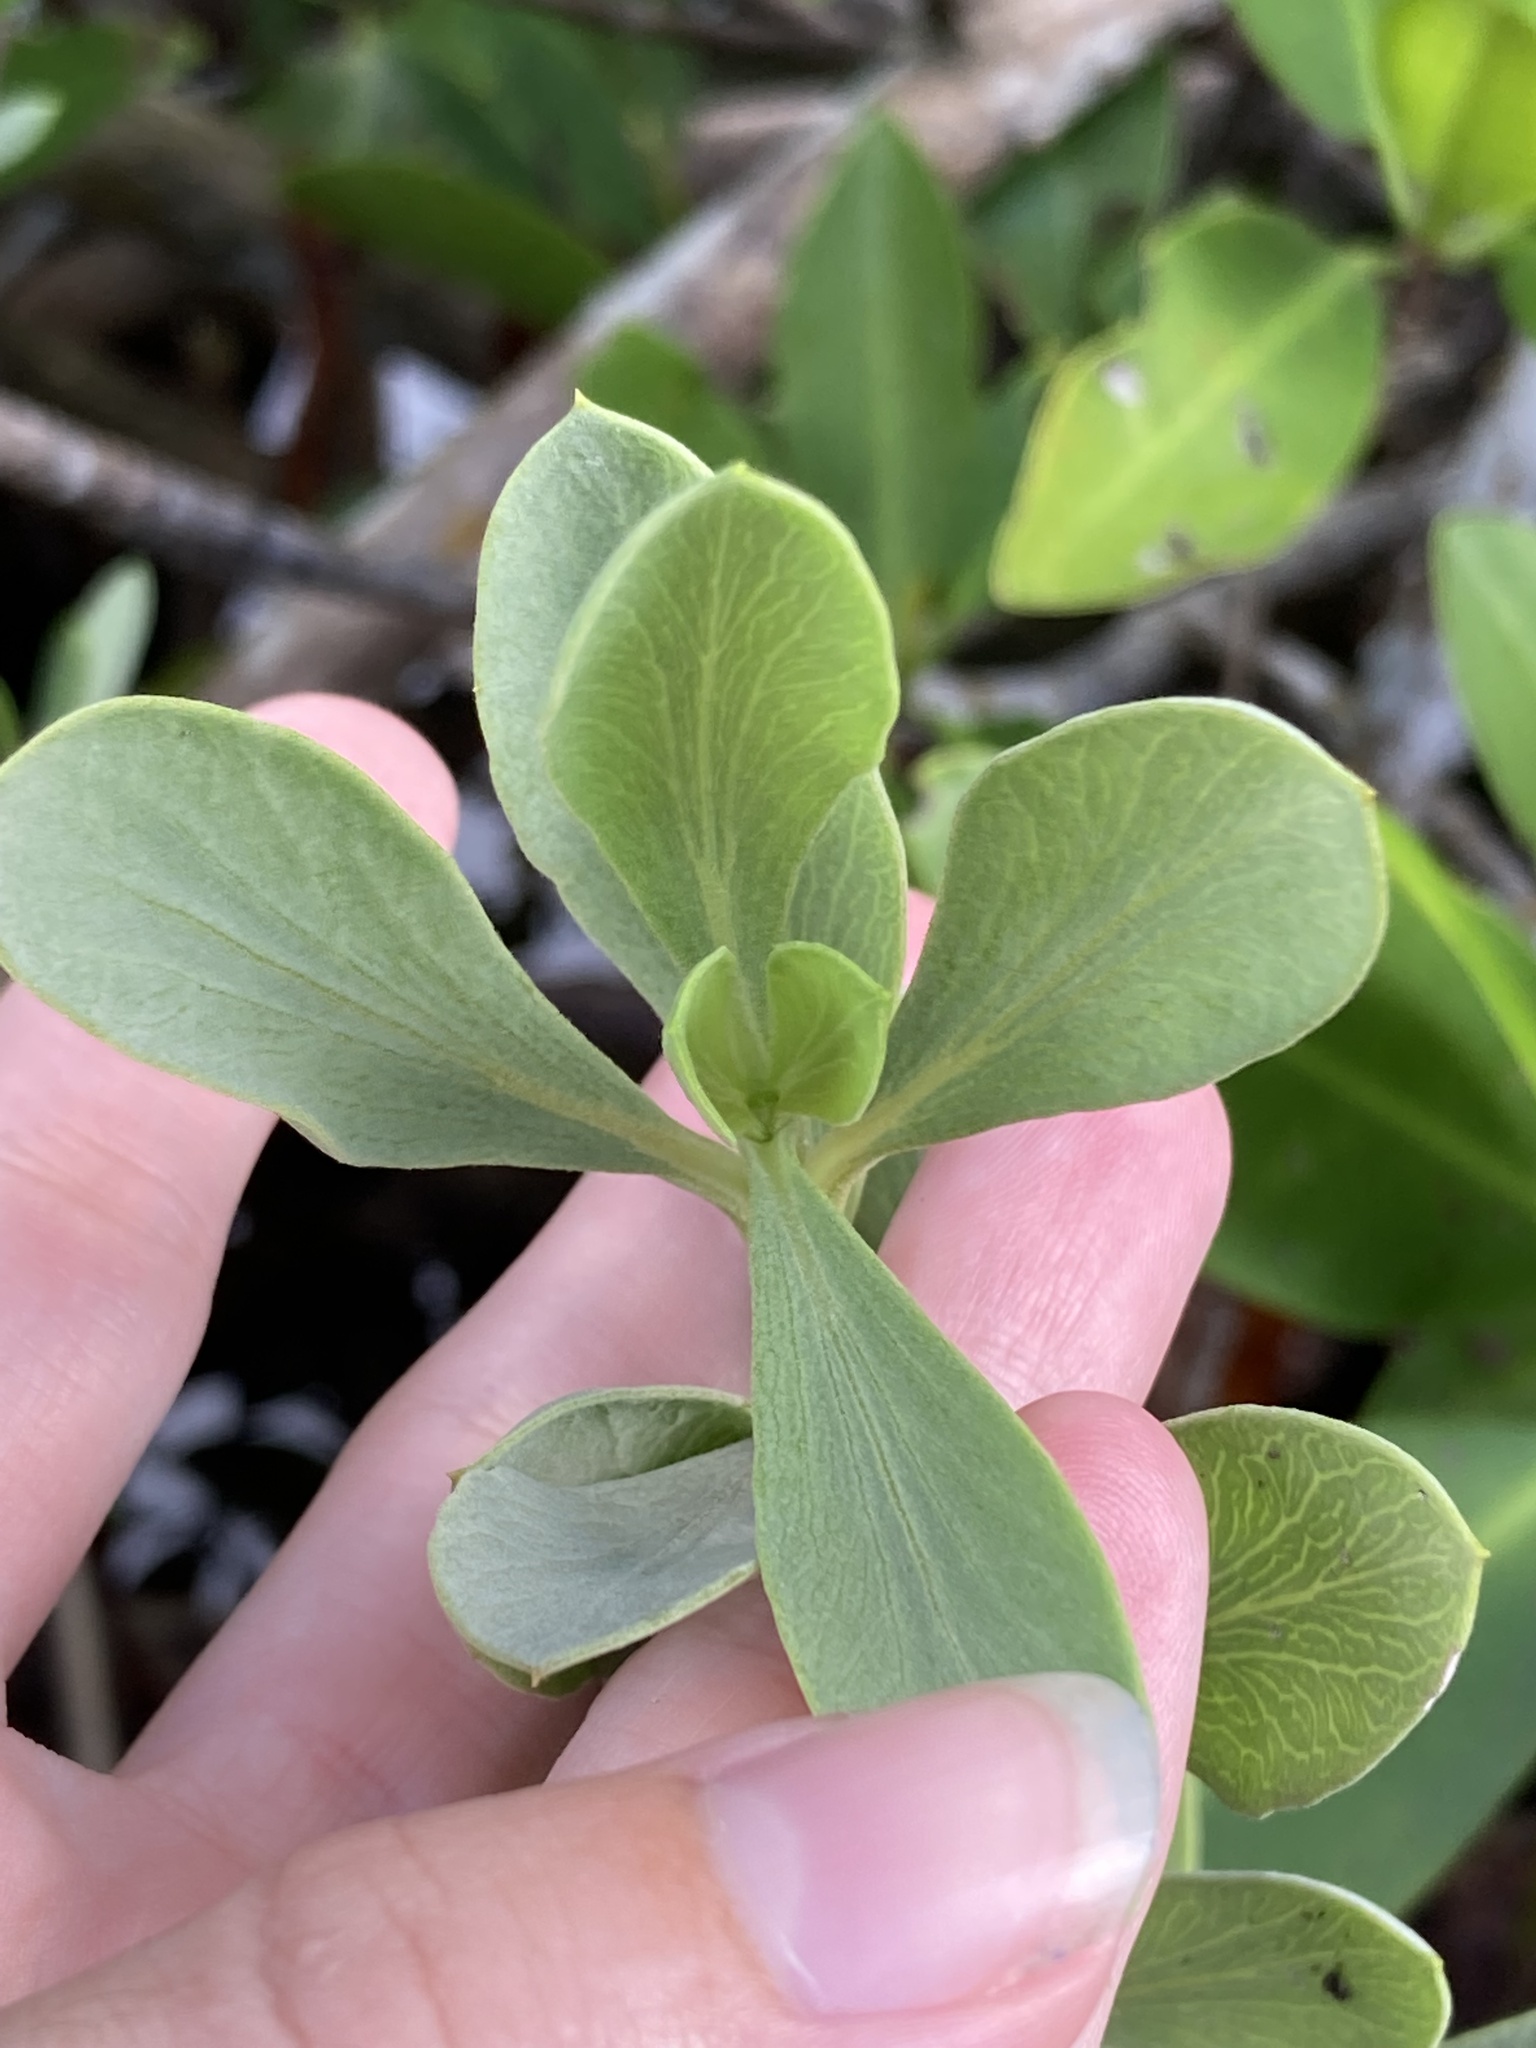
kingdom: Plantae
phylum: Tracheophyta
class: Magnoliopsida
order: Asterales
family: Asteraceae
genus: Borrichia
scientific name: Borrichia frutescens
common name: Sea oxeye
